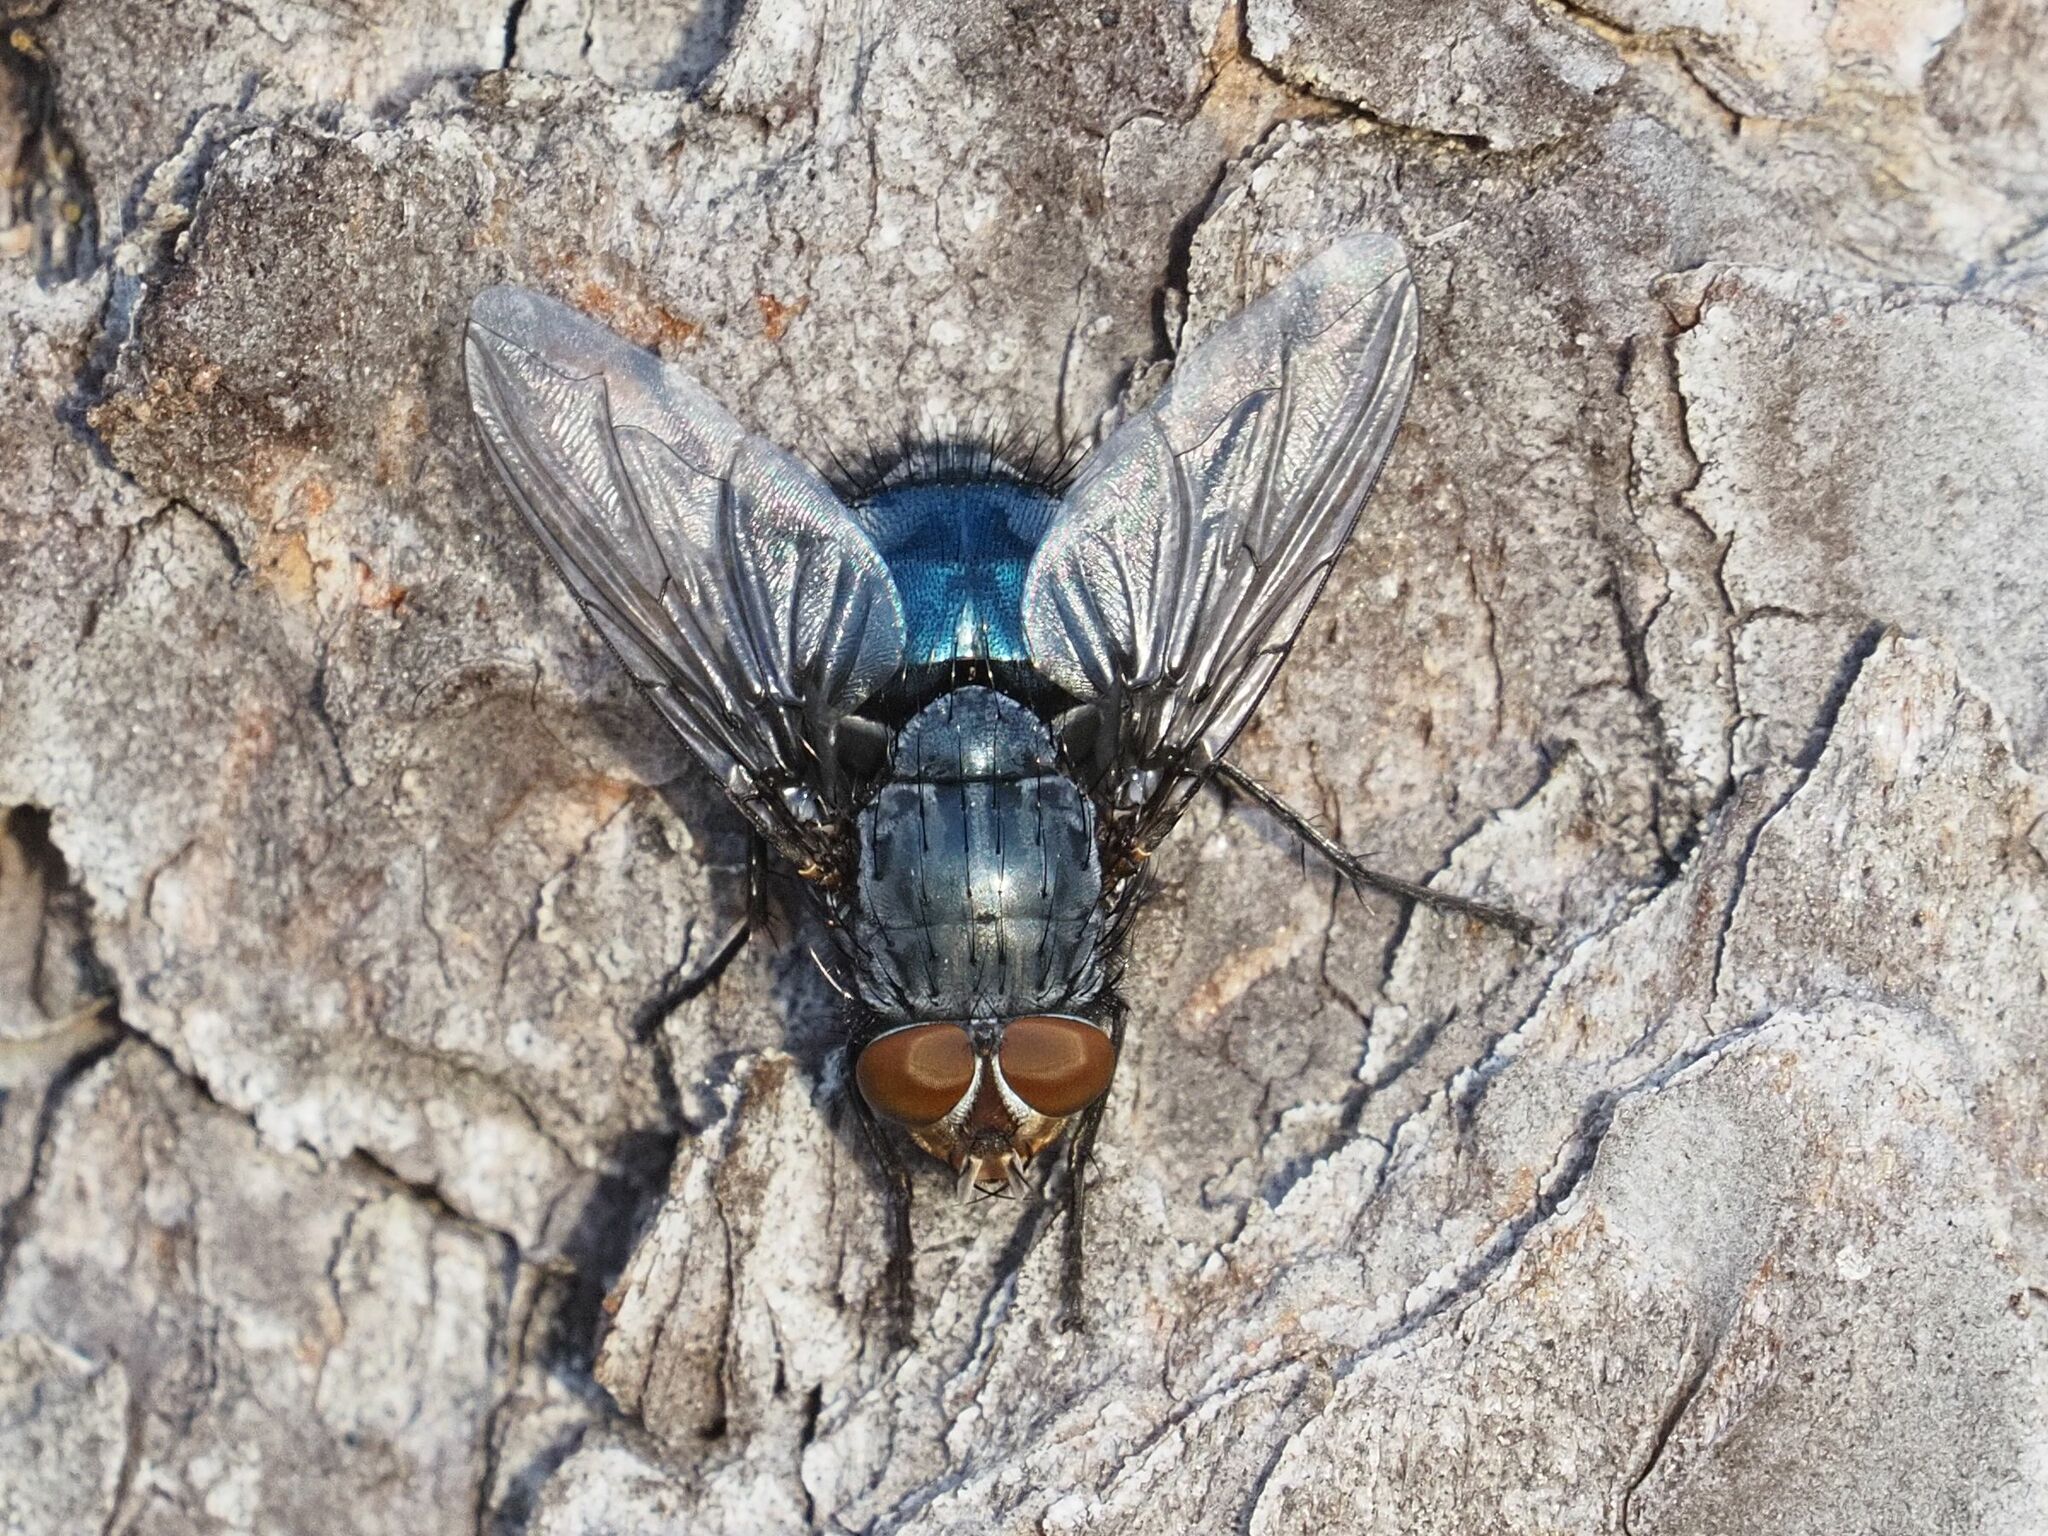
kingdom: Animalia
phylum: Arthropoda
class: Insecta
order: Diptera
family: Calliphoridae
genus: Calliphora
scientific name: Calliphora vicina
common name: Common blow flie
